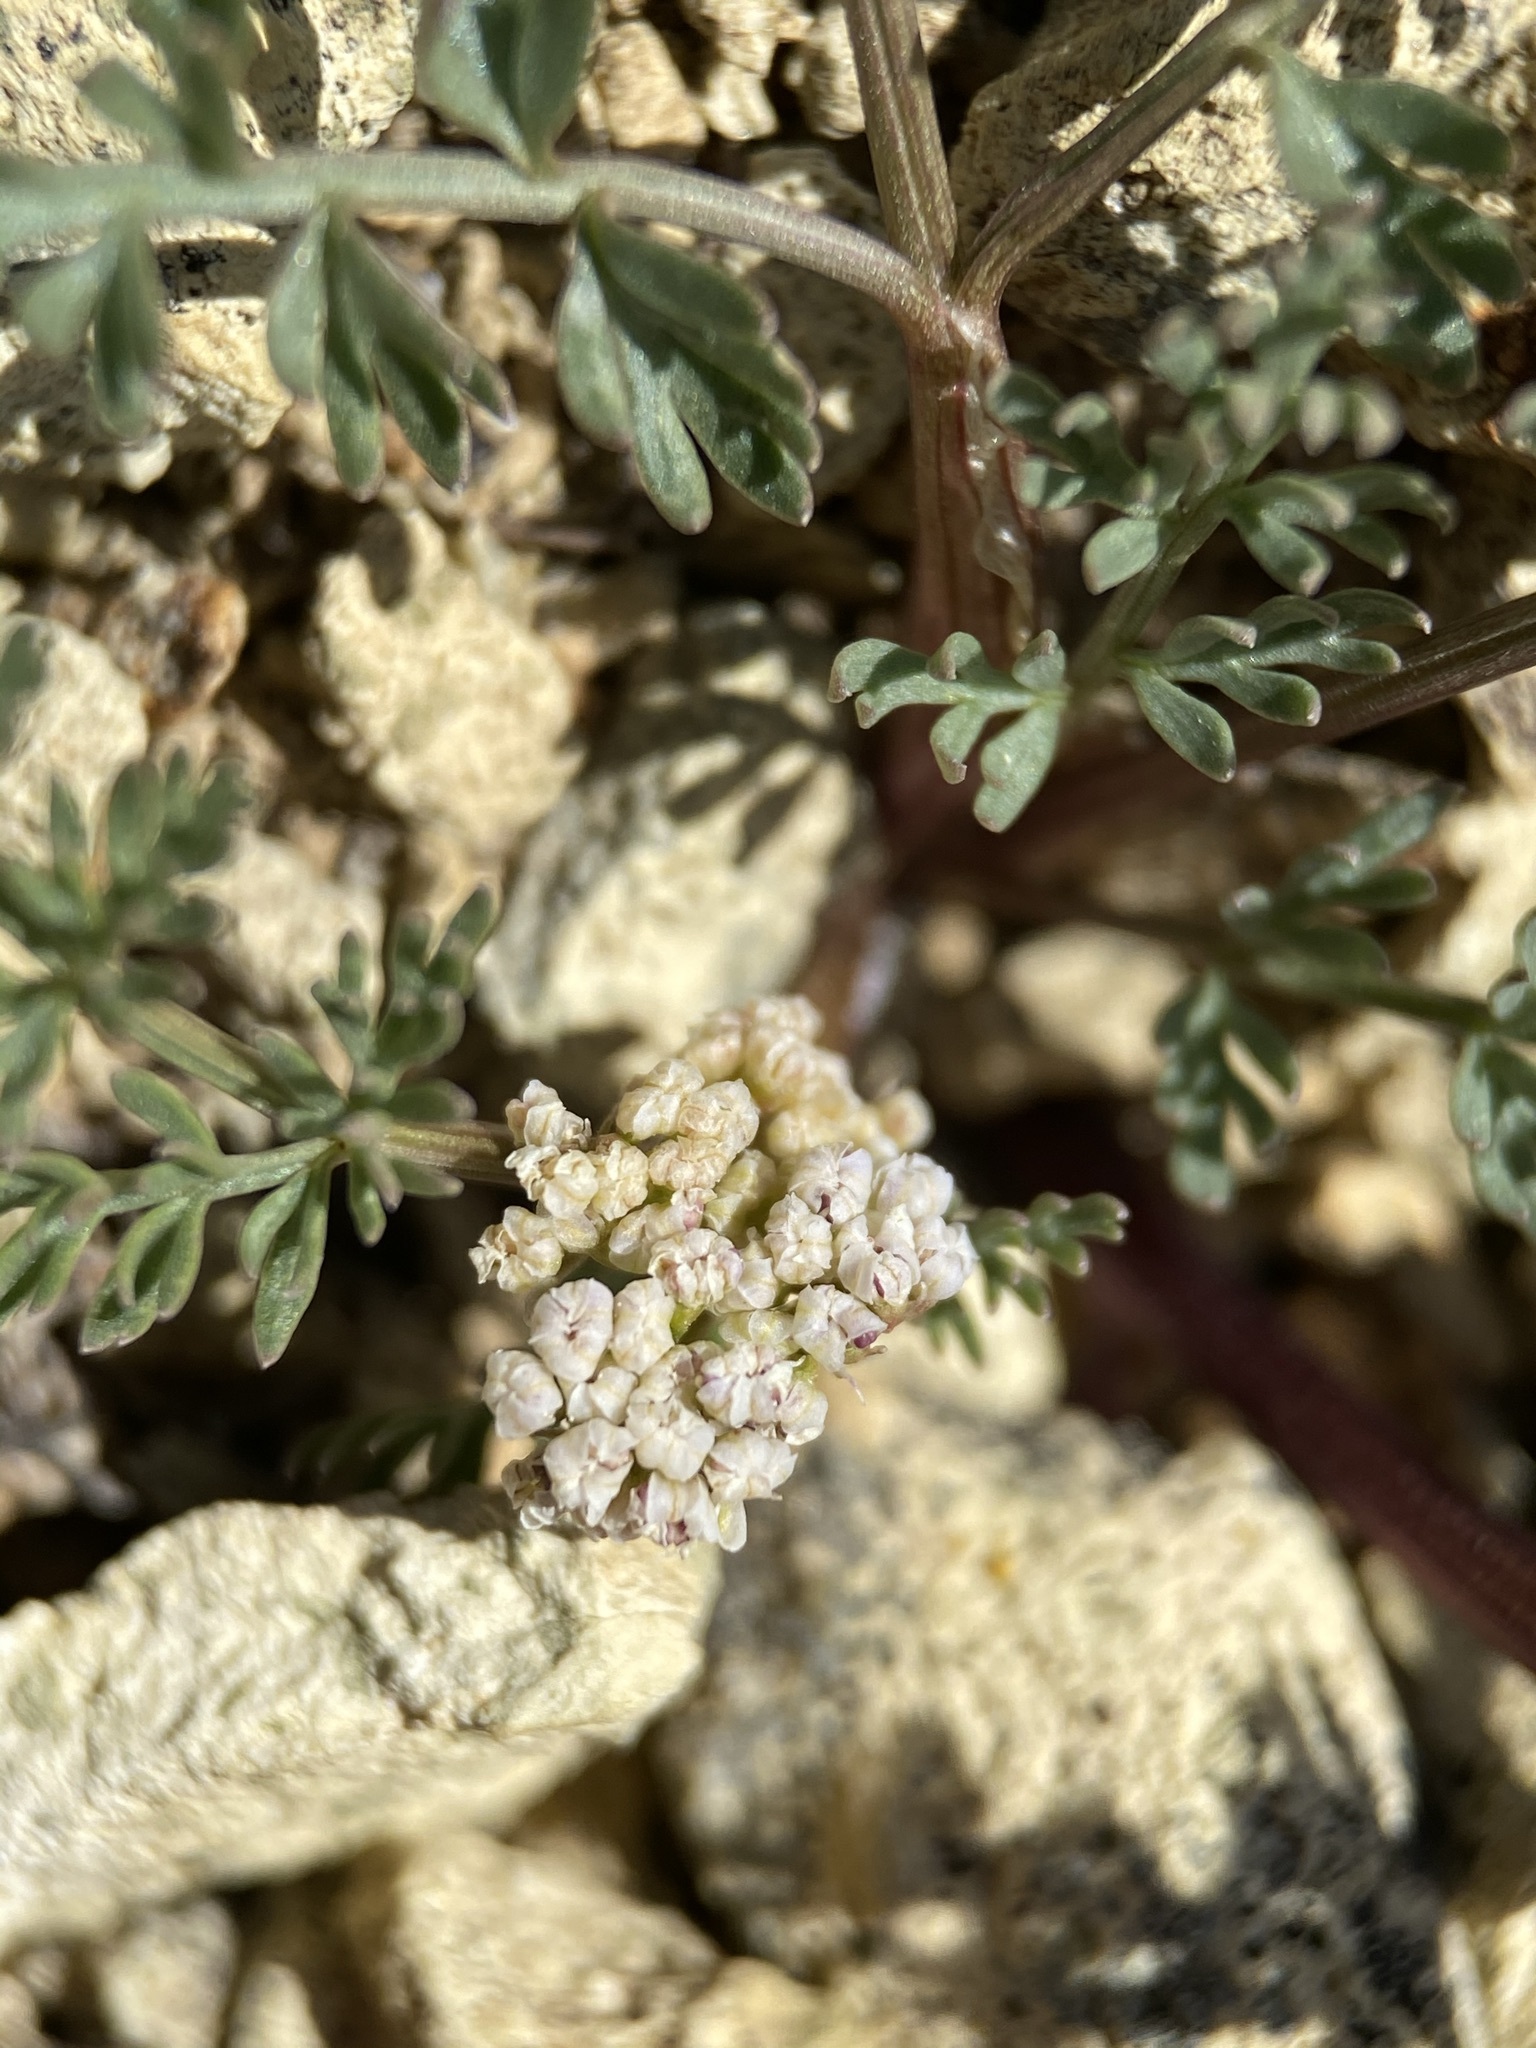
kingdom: Plantae
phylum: Tracheophyta
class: Magnoliopsida
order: Apiales
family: Apiaceae
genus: Lomatium
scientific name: Lomatium canbyi
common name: Chucklusa
